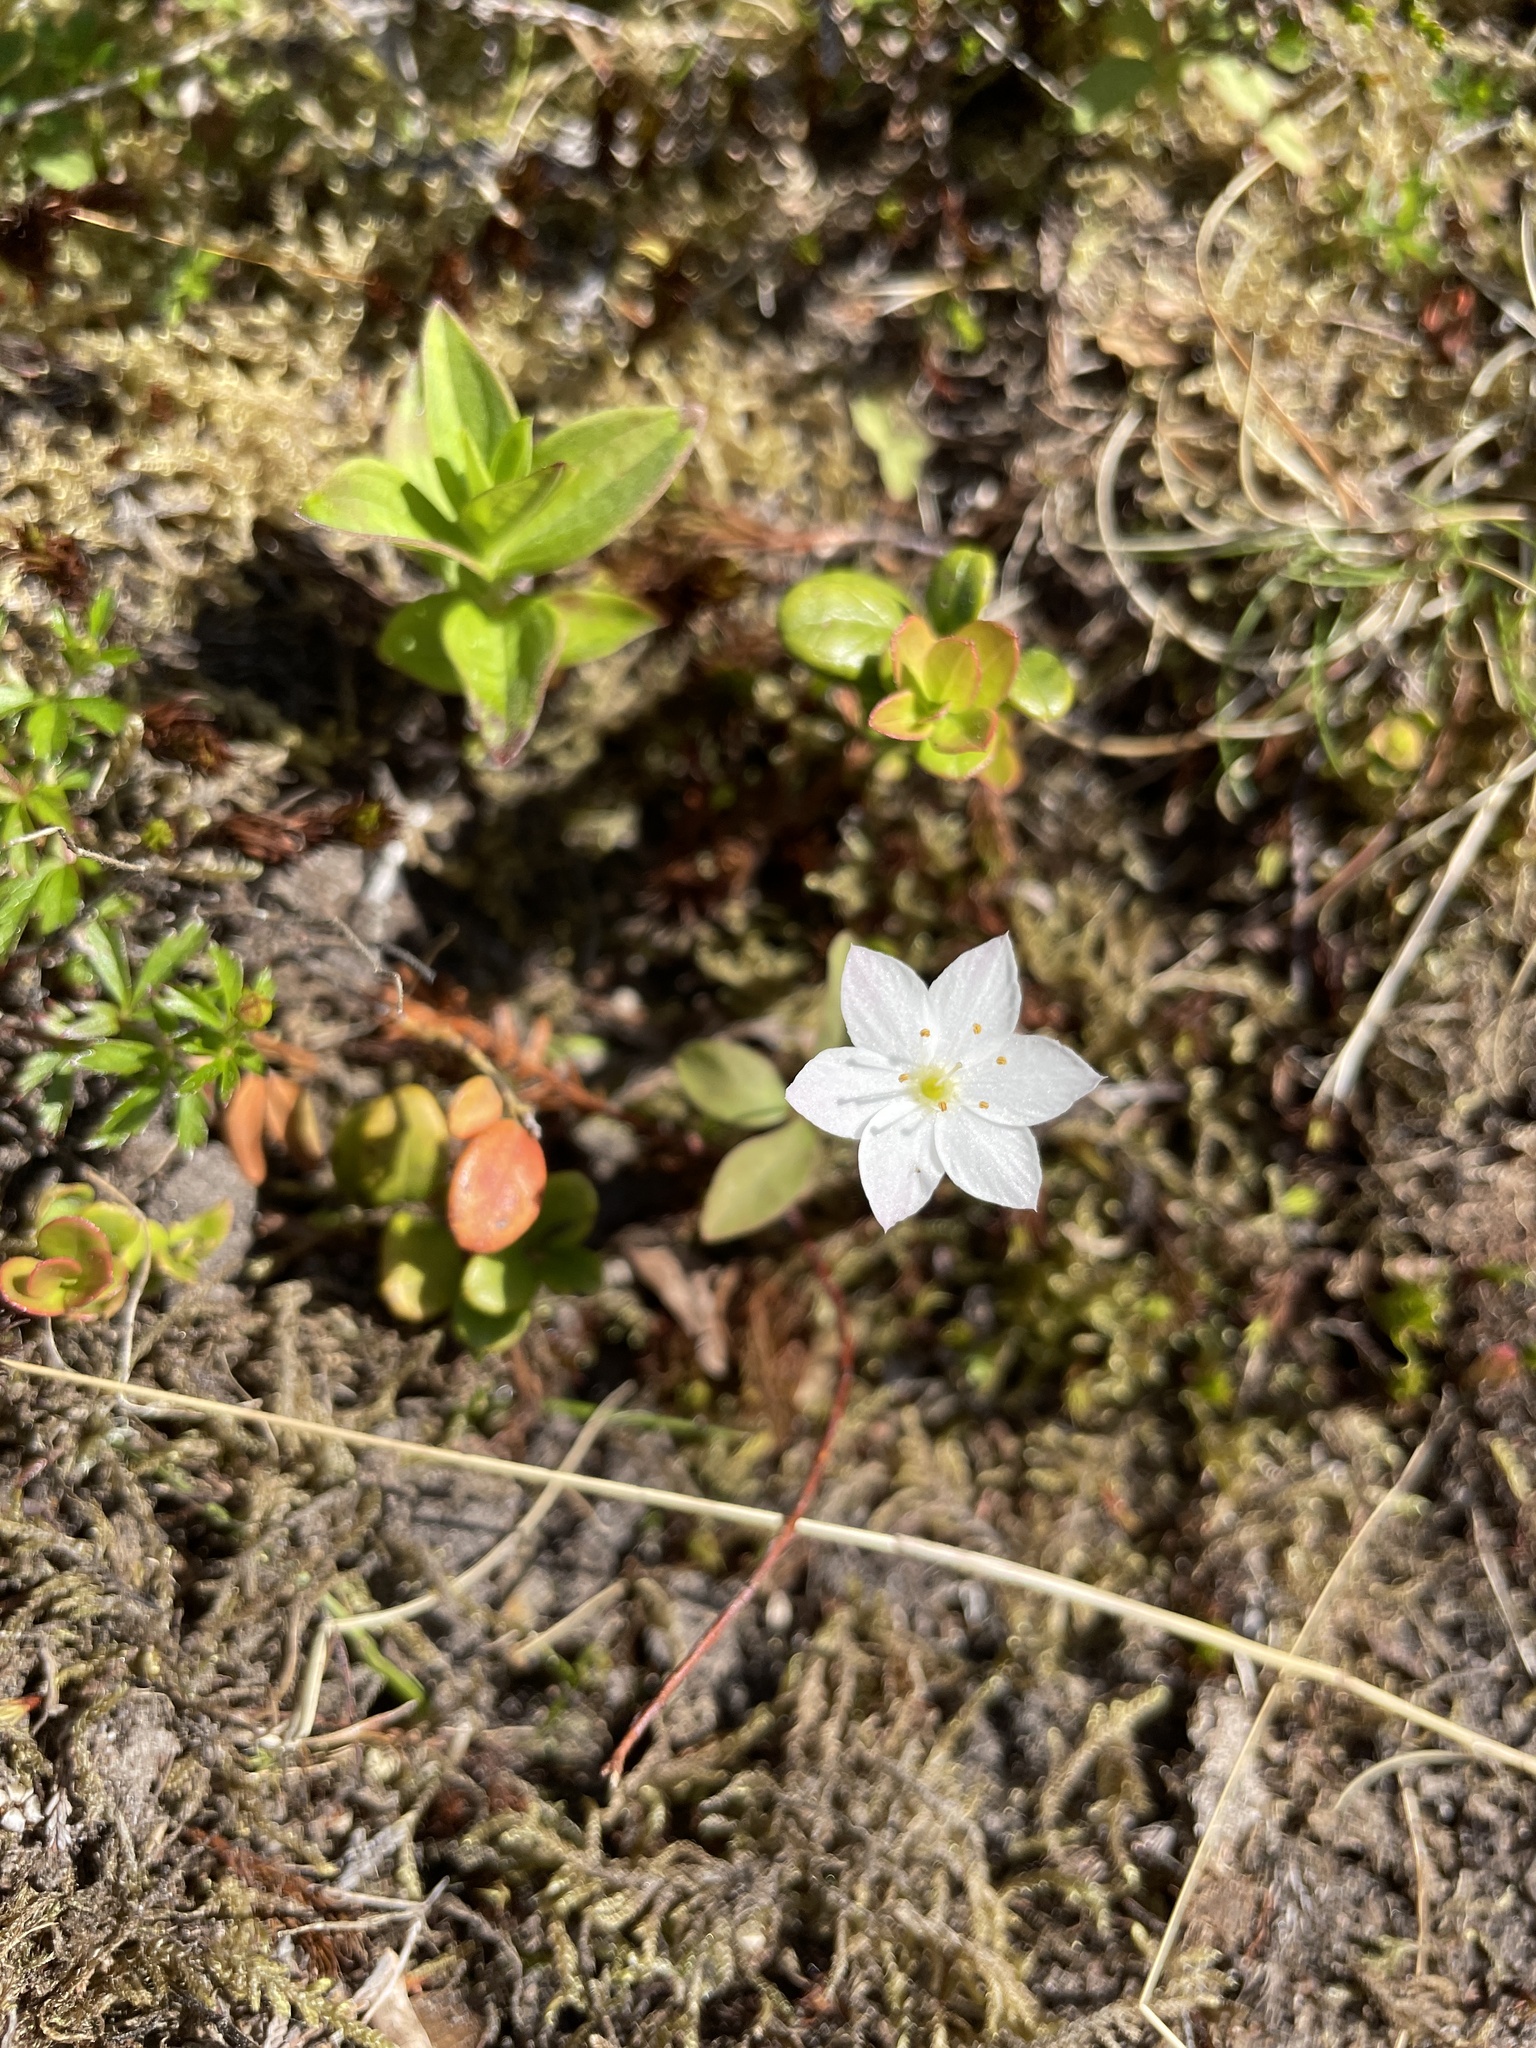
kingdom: Plantae
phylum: Tracheophyta
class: Magnoliopsida
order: Ericales
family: Primulaceae
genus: Lysimachia
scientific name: Lysimachia europaea
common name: Arctic starflower
